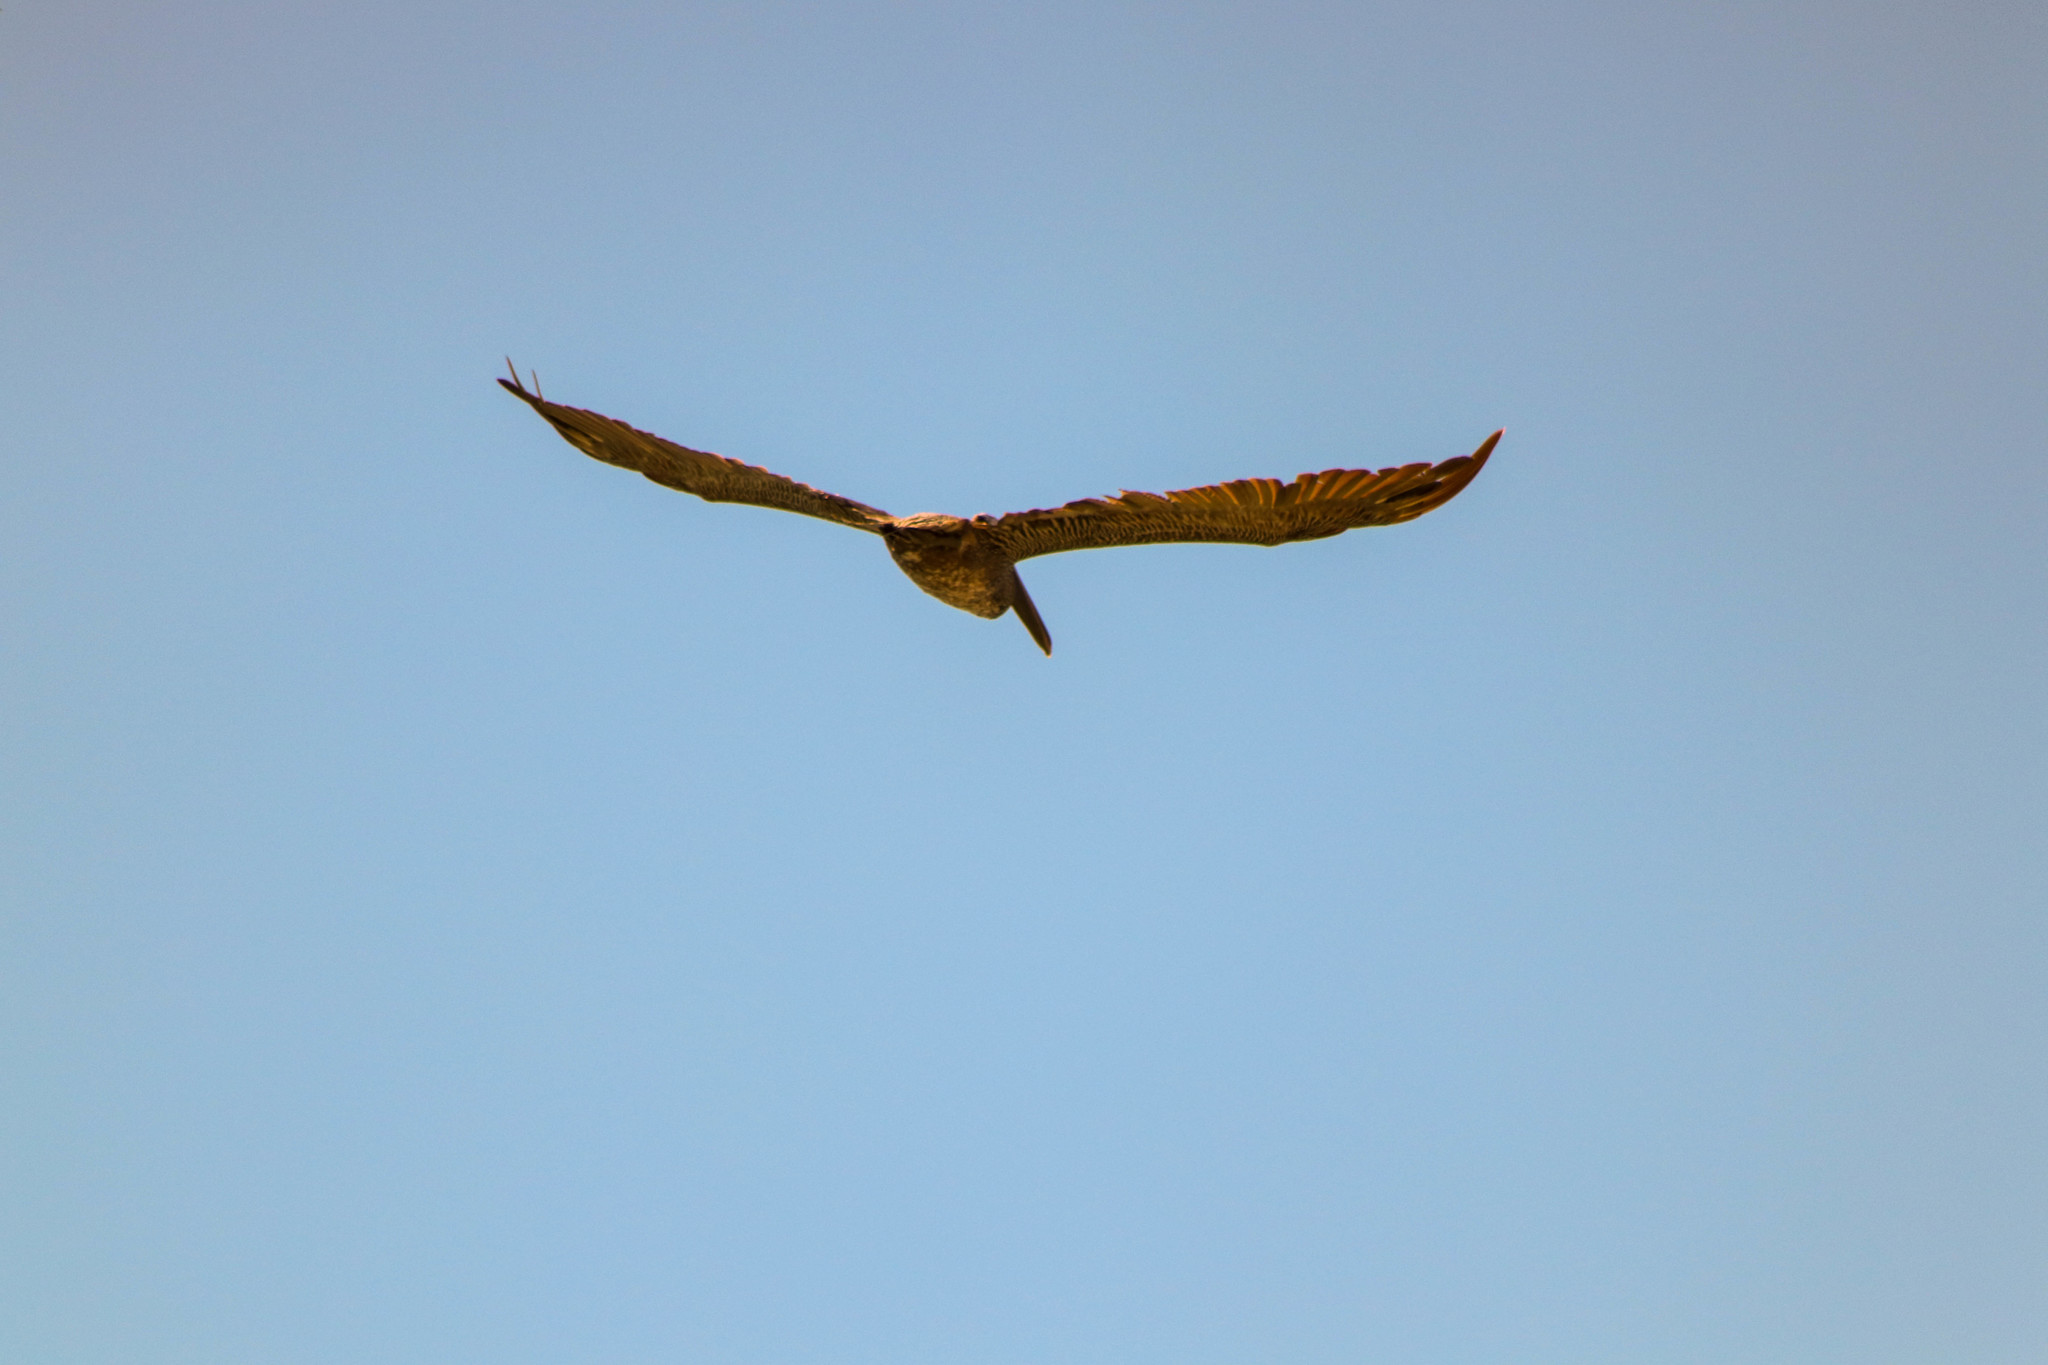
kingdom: Animalia
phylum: Chordata
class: Aves
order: Pelecaniformes
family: Pelecanidae
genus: Pelecanus
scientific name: Pelecanus occidentalis
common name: Brown pelican
